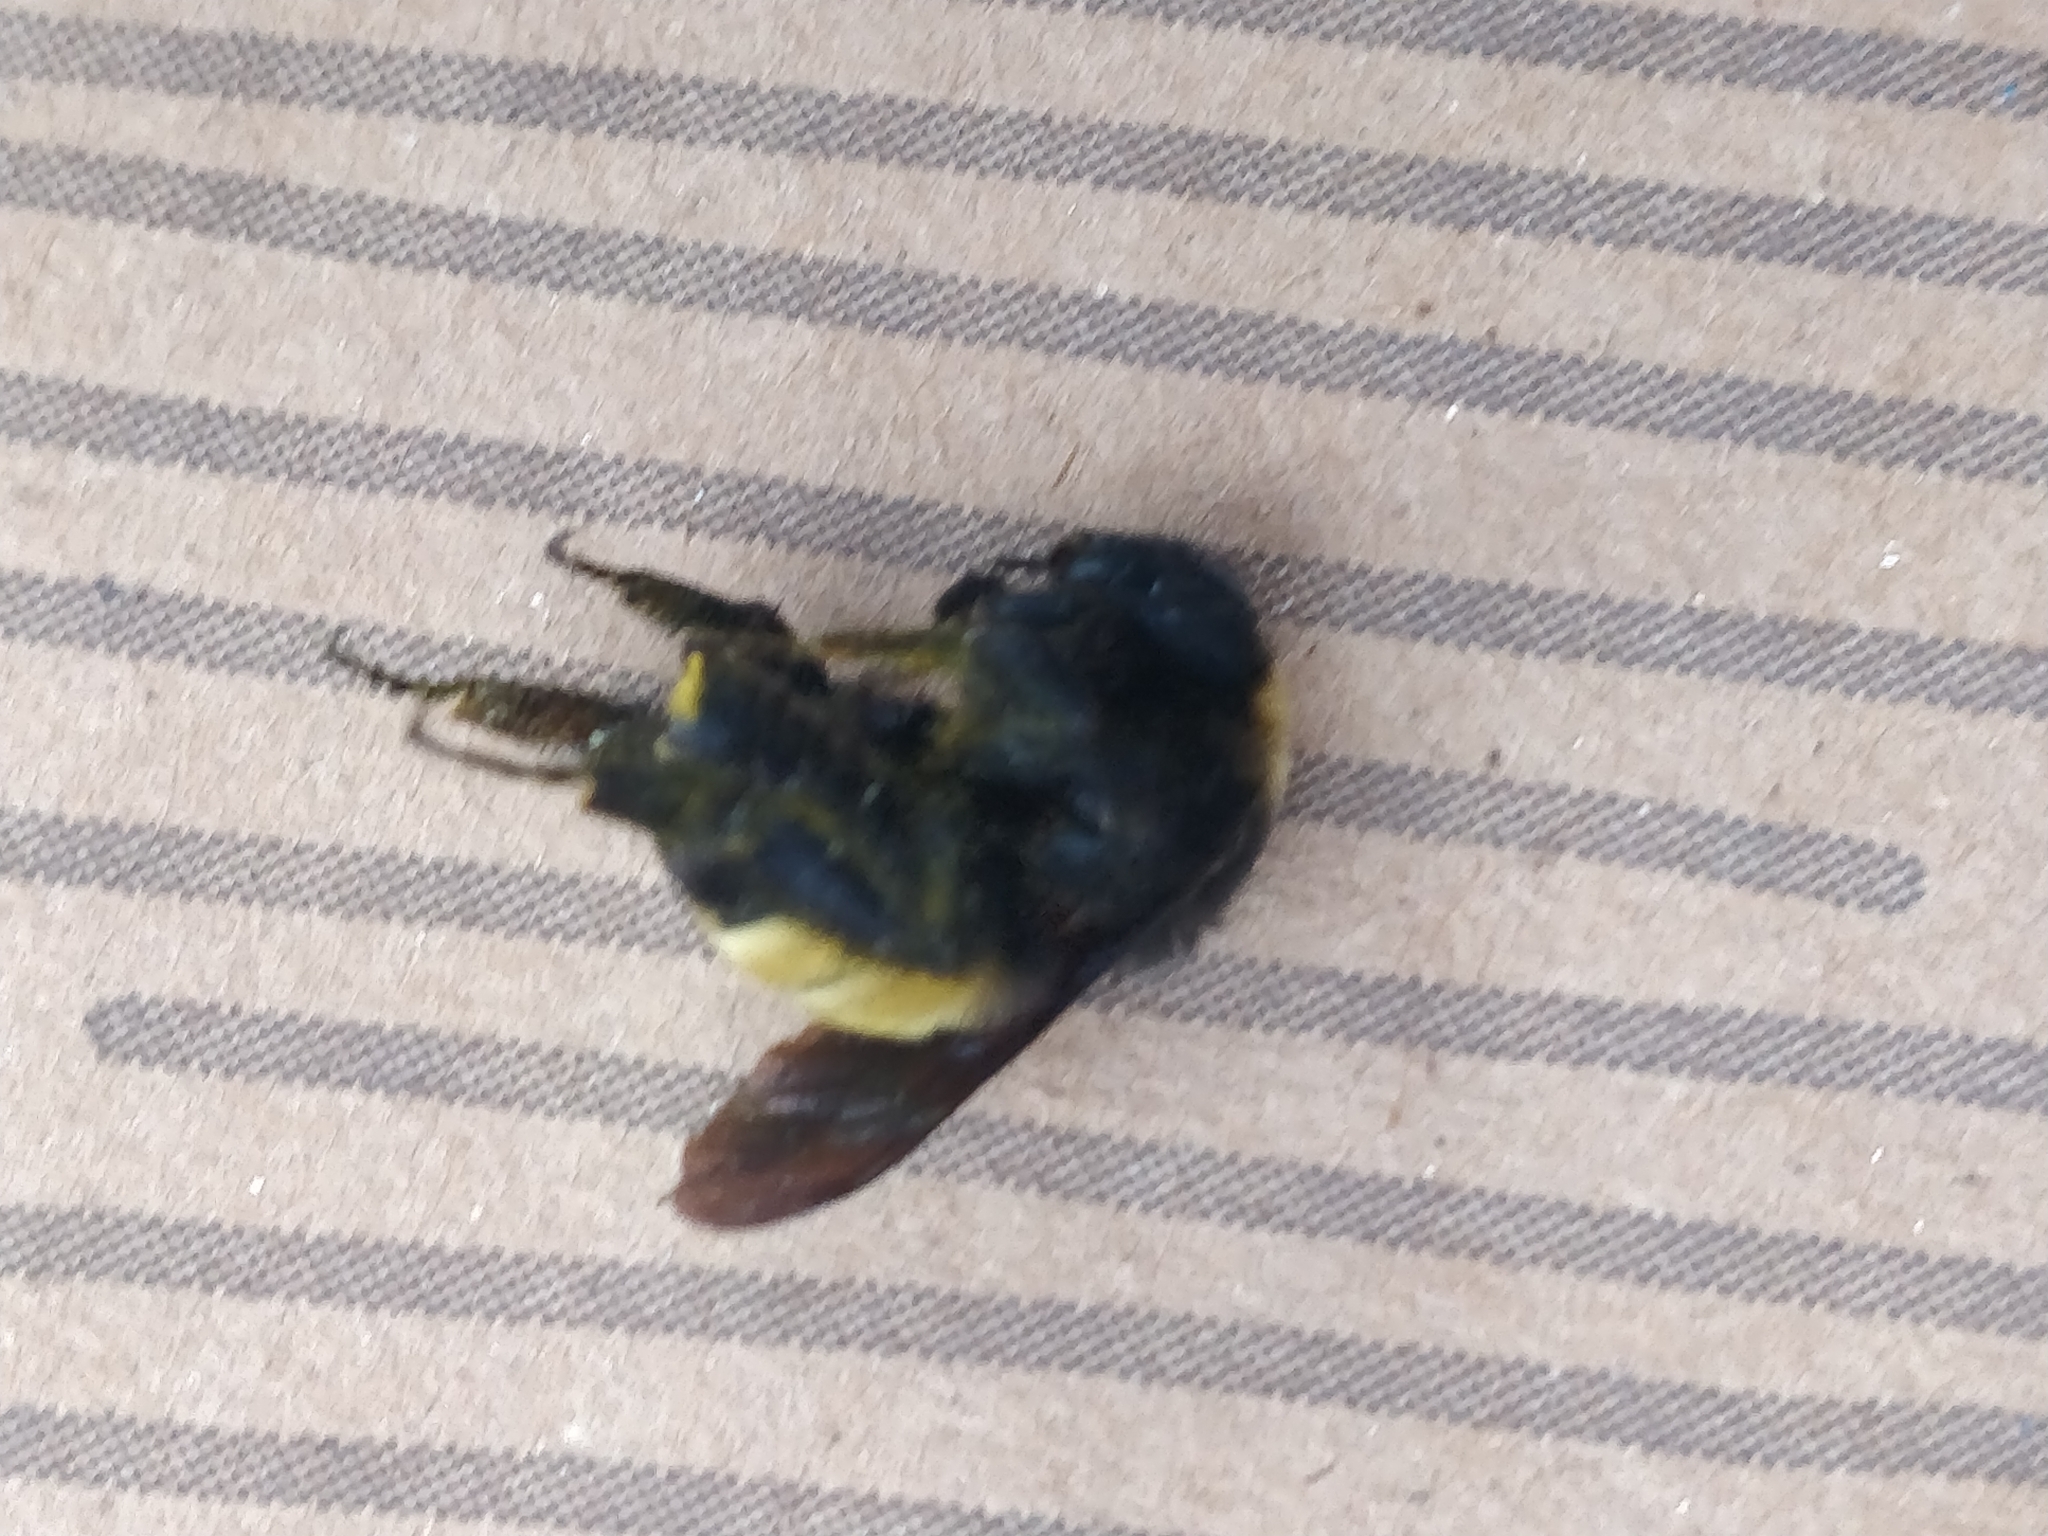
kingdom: Animalia
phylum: Arthropoda
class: Insecta
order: Hymenoptera
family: Apidae
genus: Bombus
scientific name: Bombus pensylvanicus
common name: Bumble bee
